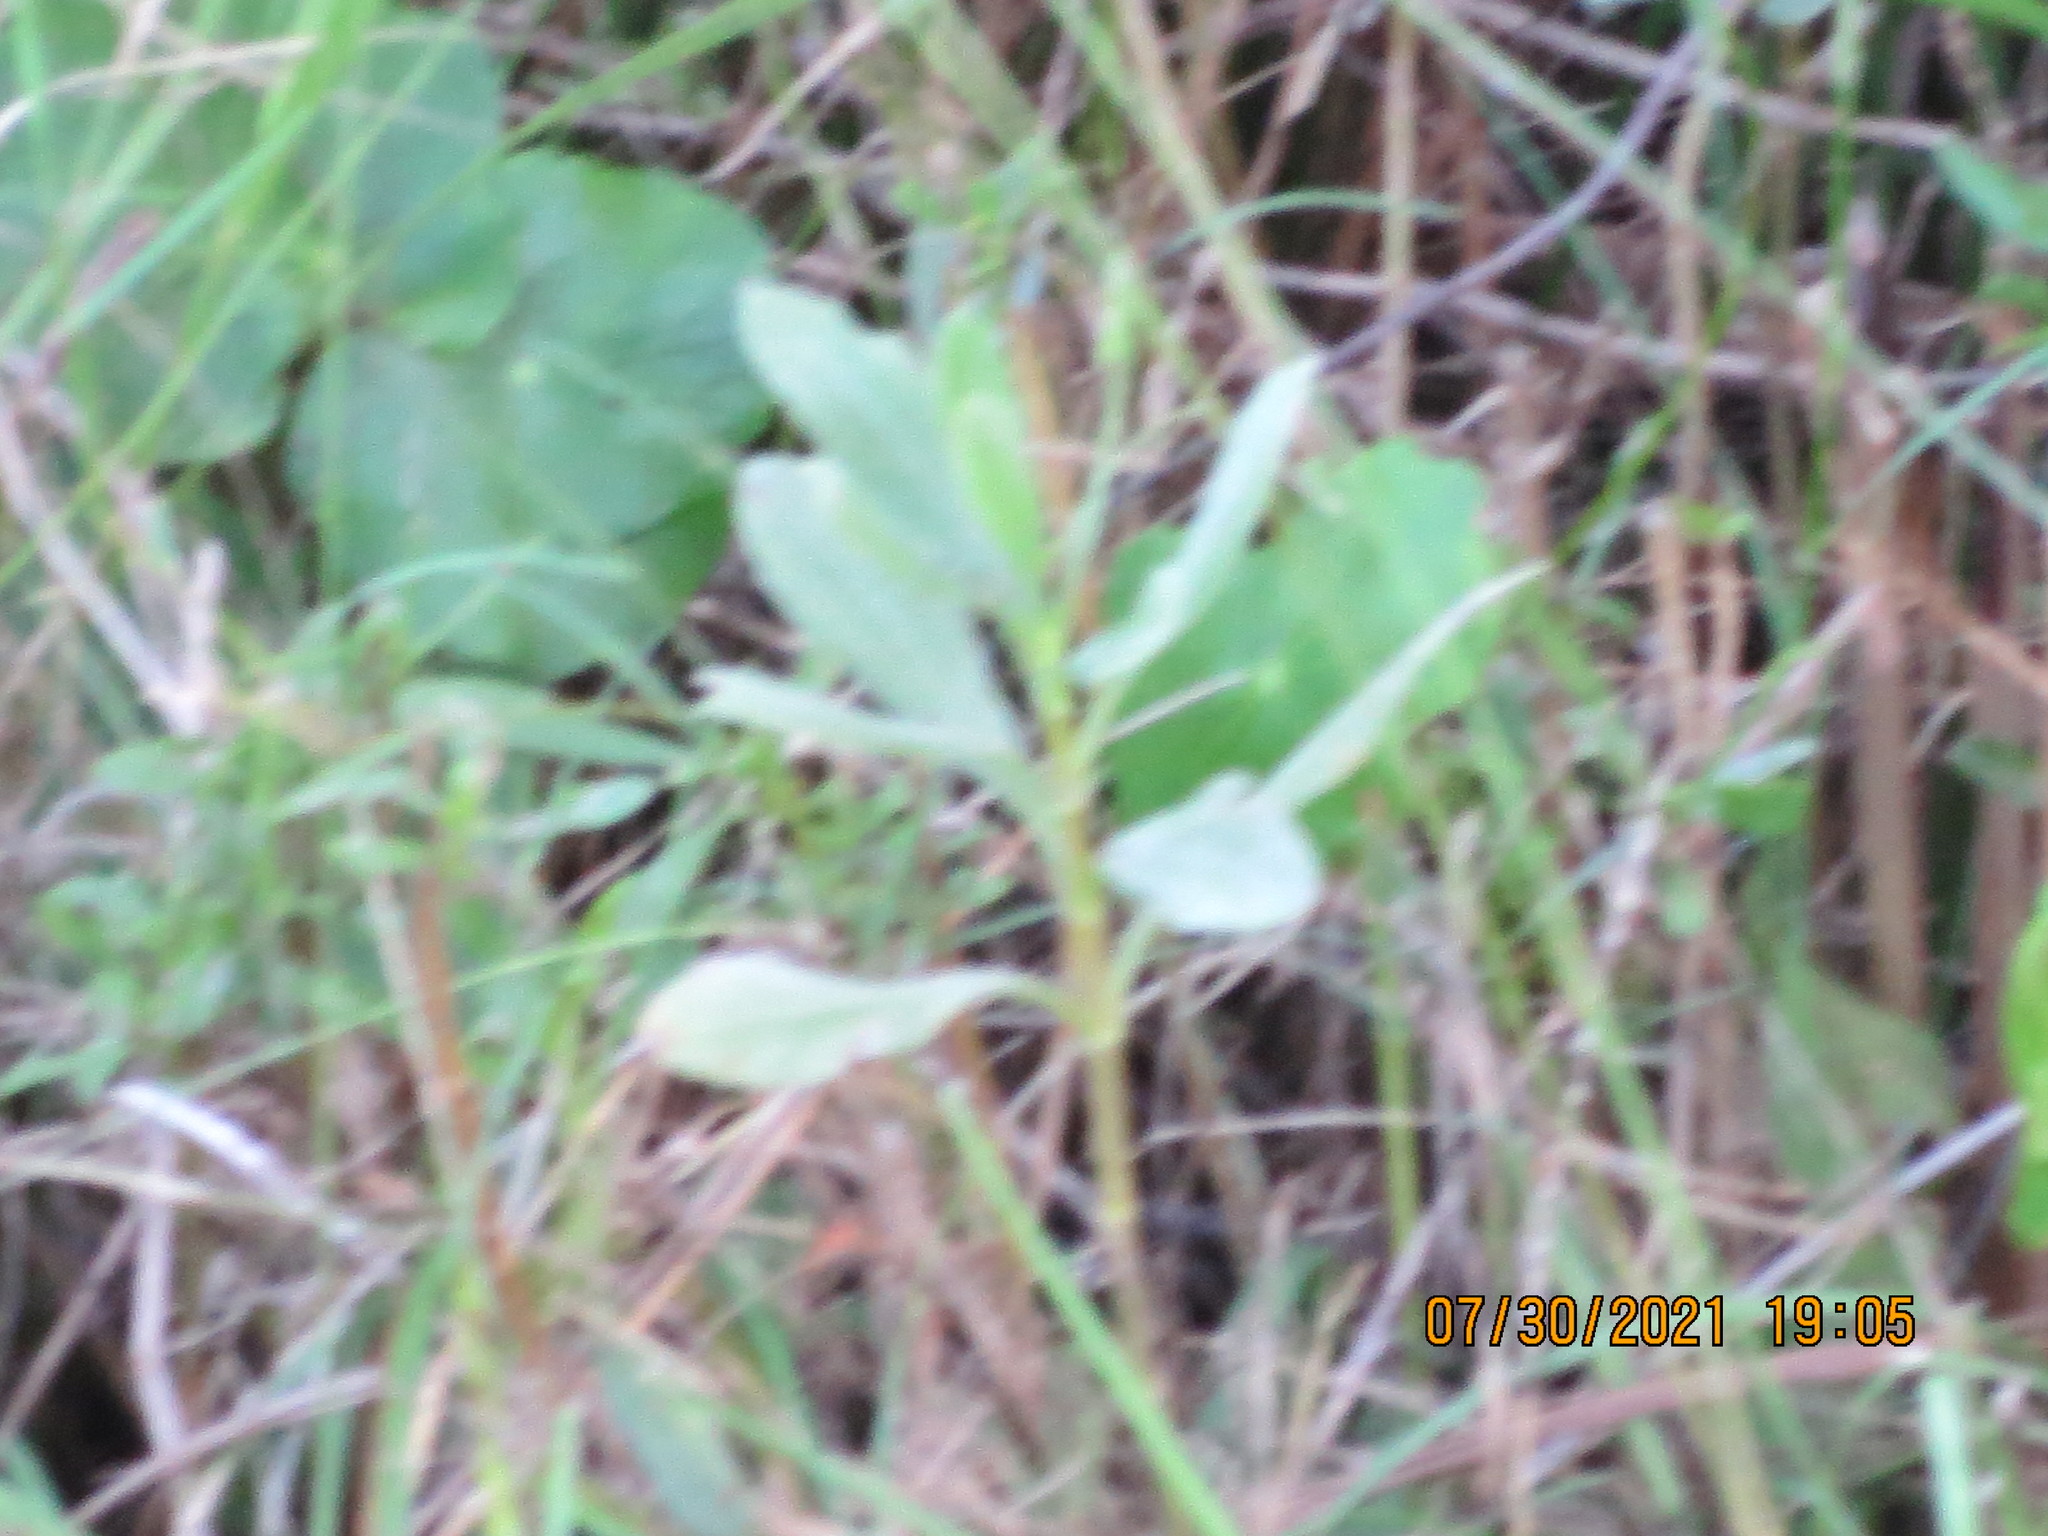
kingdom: Plantae
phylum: Tracheophyta
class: Magnoliopsida
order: Asterales
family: Asteraceae
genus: Borrichia
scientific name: Borrichia frutescens
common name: Sea oxeye
